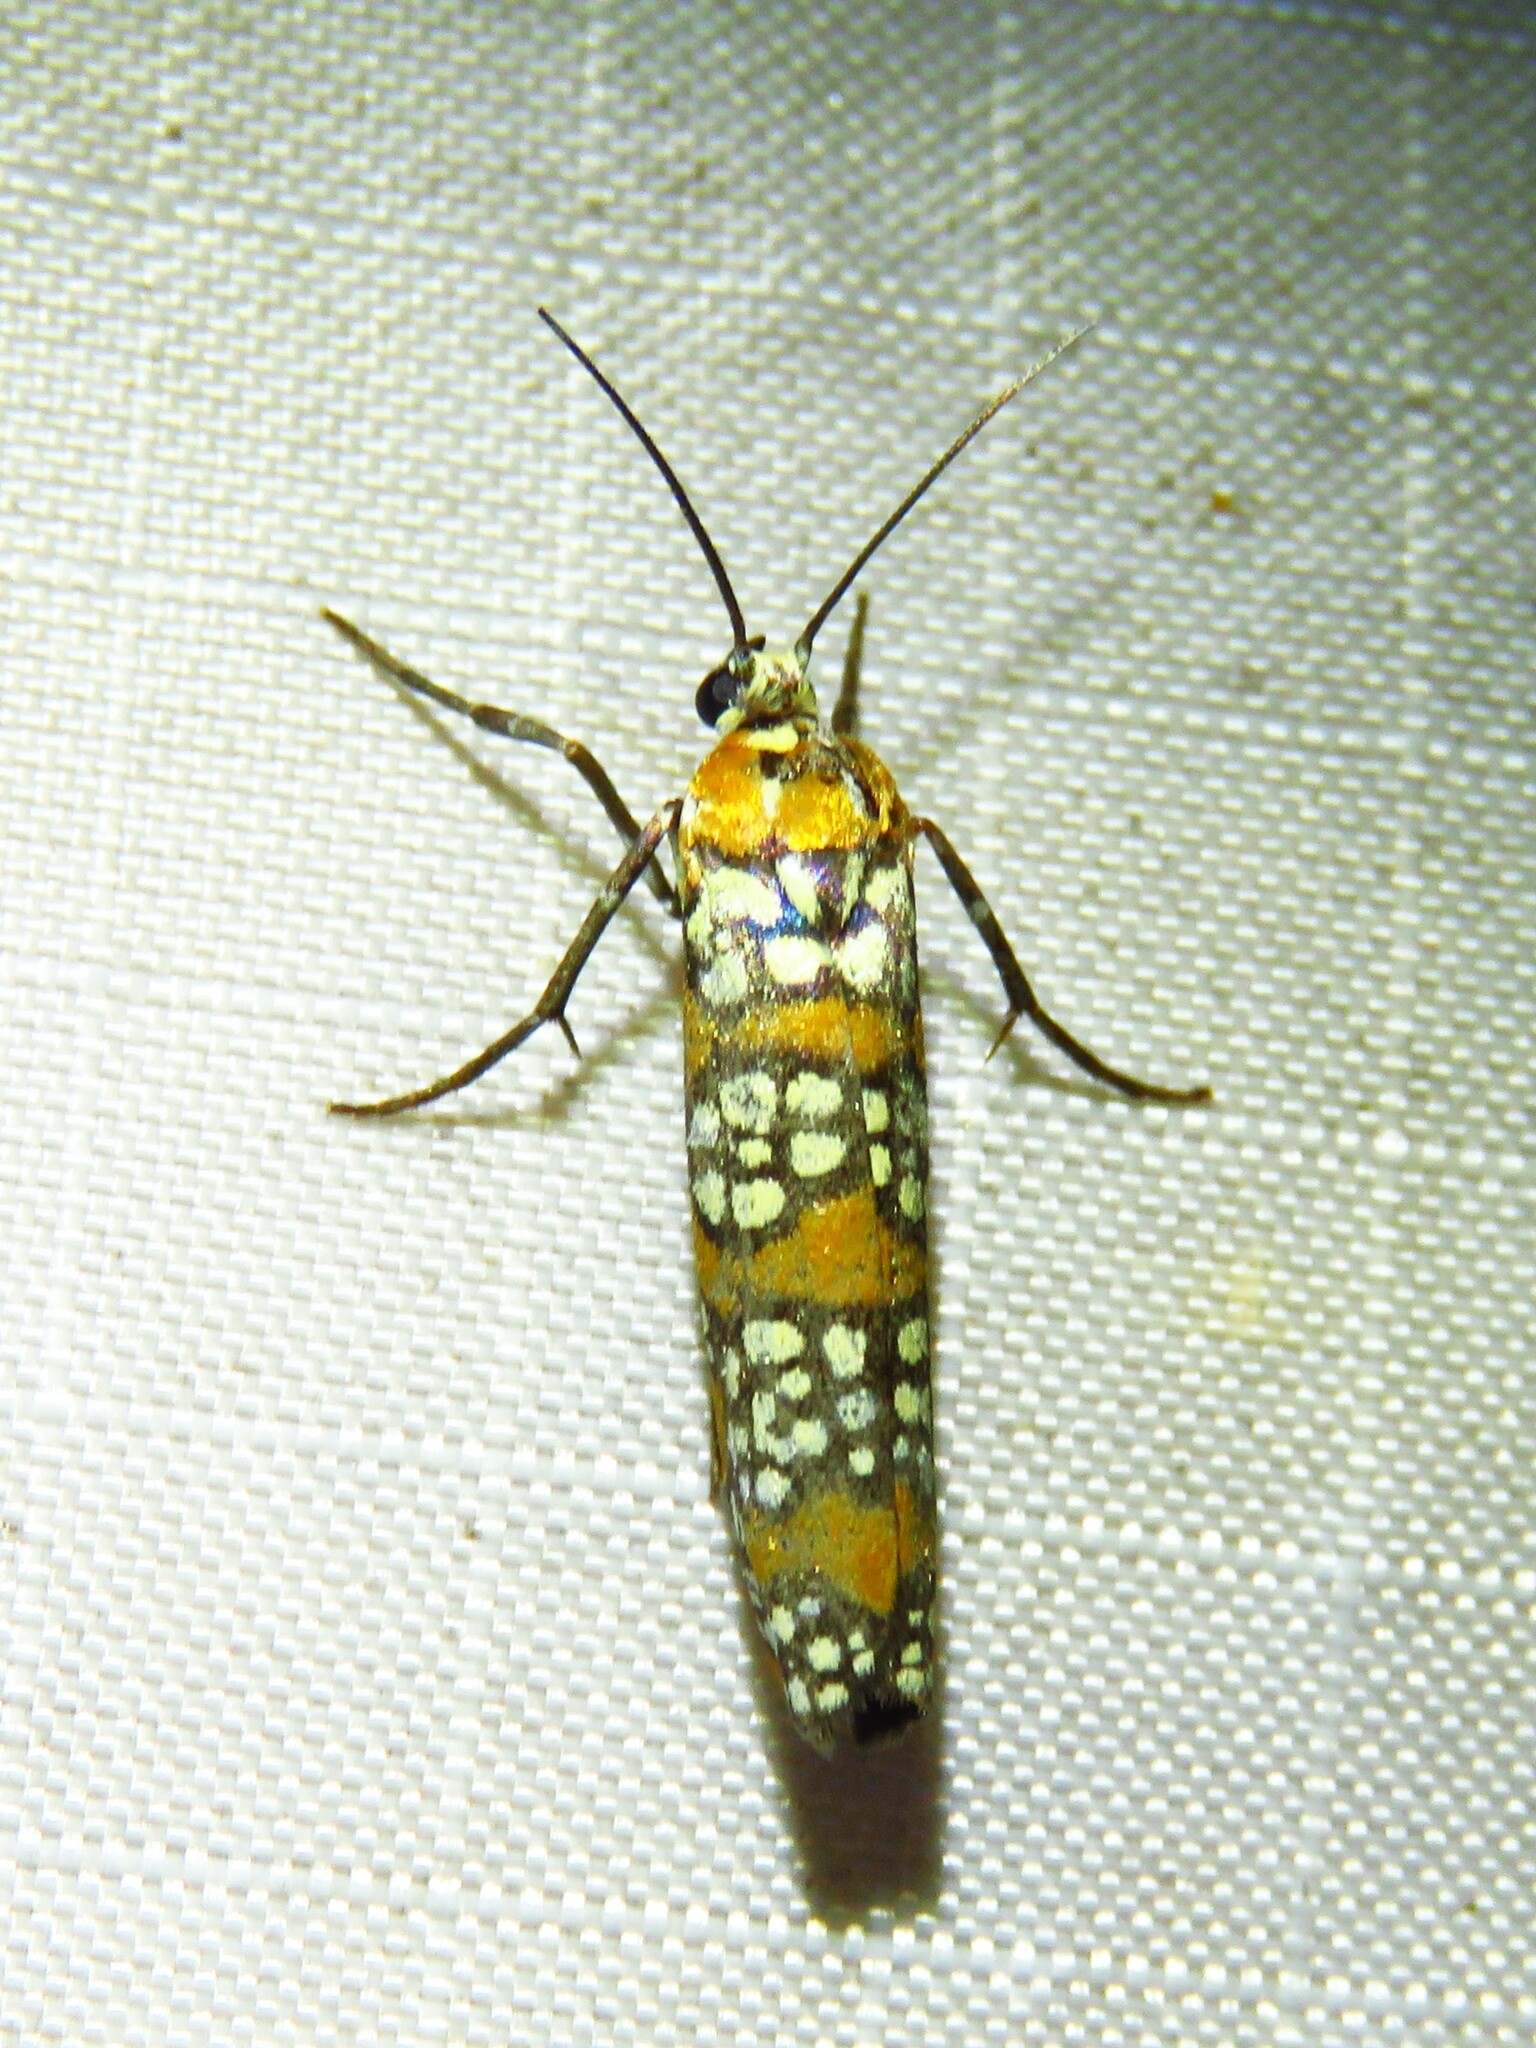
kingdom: Animalia
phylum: Arthropoda
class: Insecta
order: Lepidoptera
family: Attevidae
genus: Atteva
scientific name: Atteva punctella
